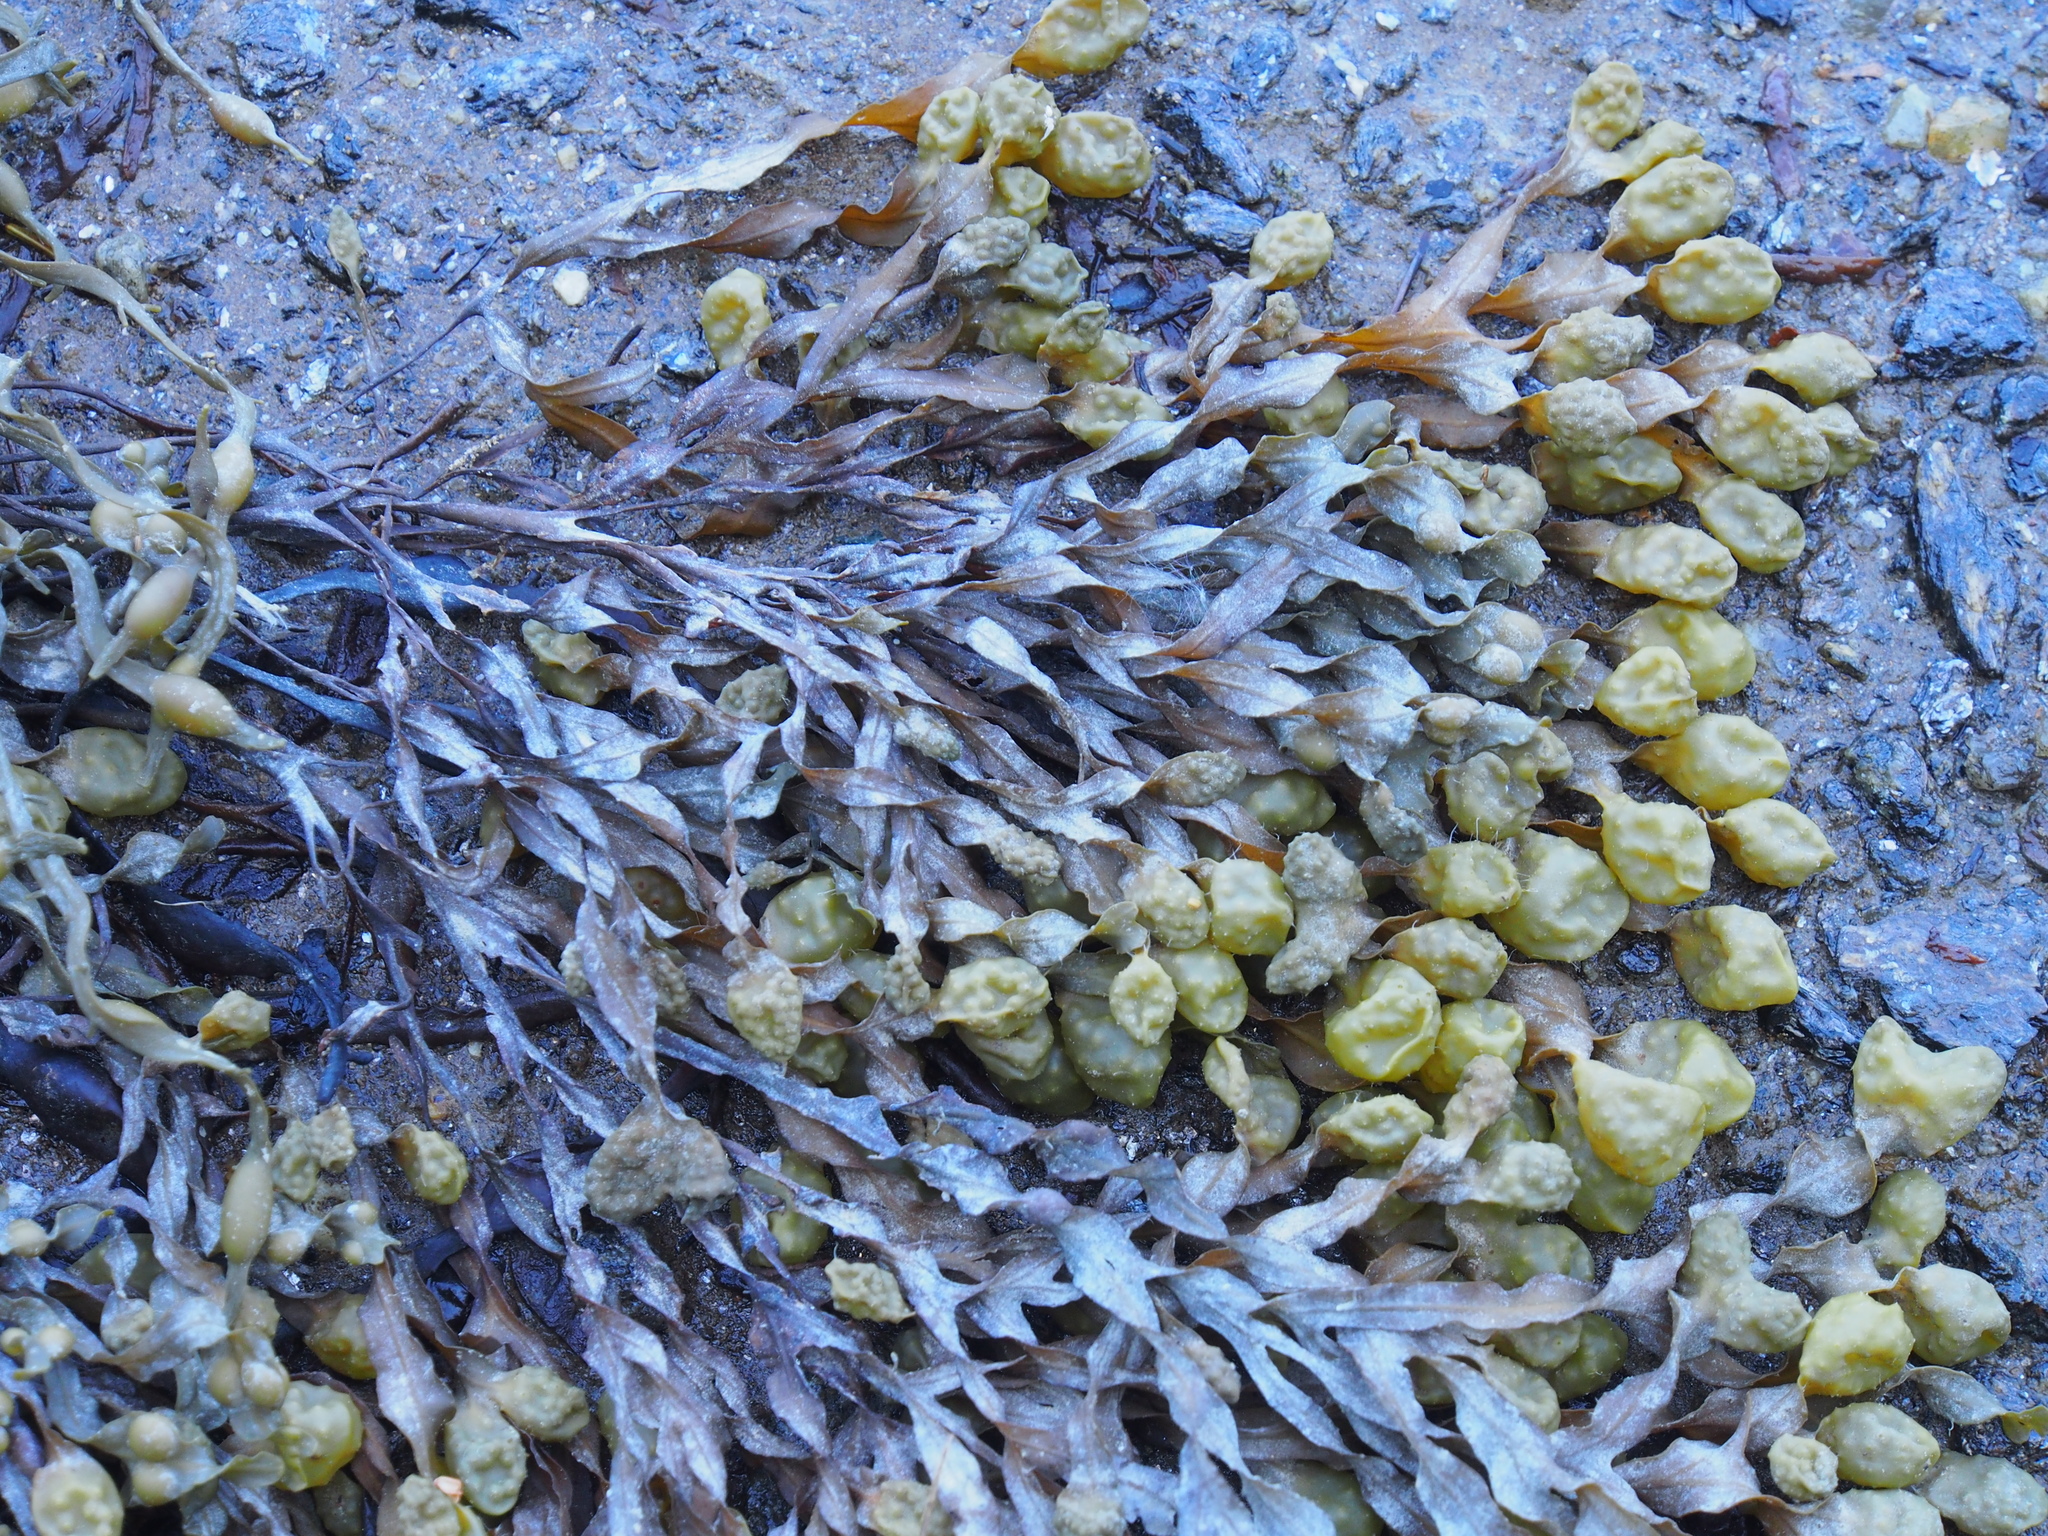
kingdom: Chromista
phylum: Ochrophyta
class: Phaeophyceae
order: Fucales
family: Fucaceae
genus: Fucus
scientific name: Fucus vesiculosus
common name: Bladder wrack
